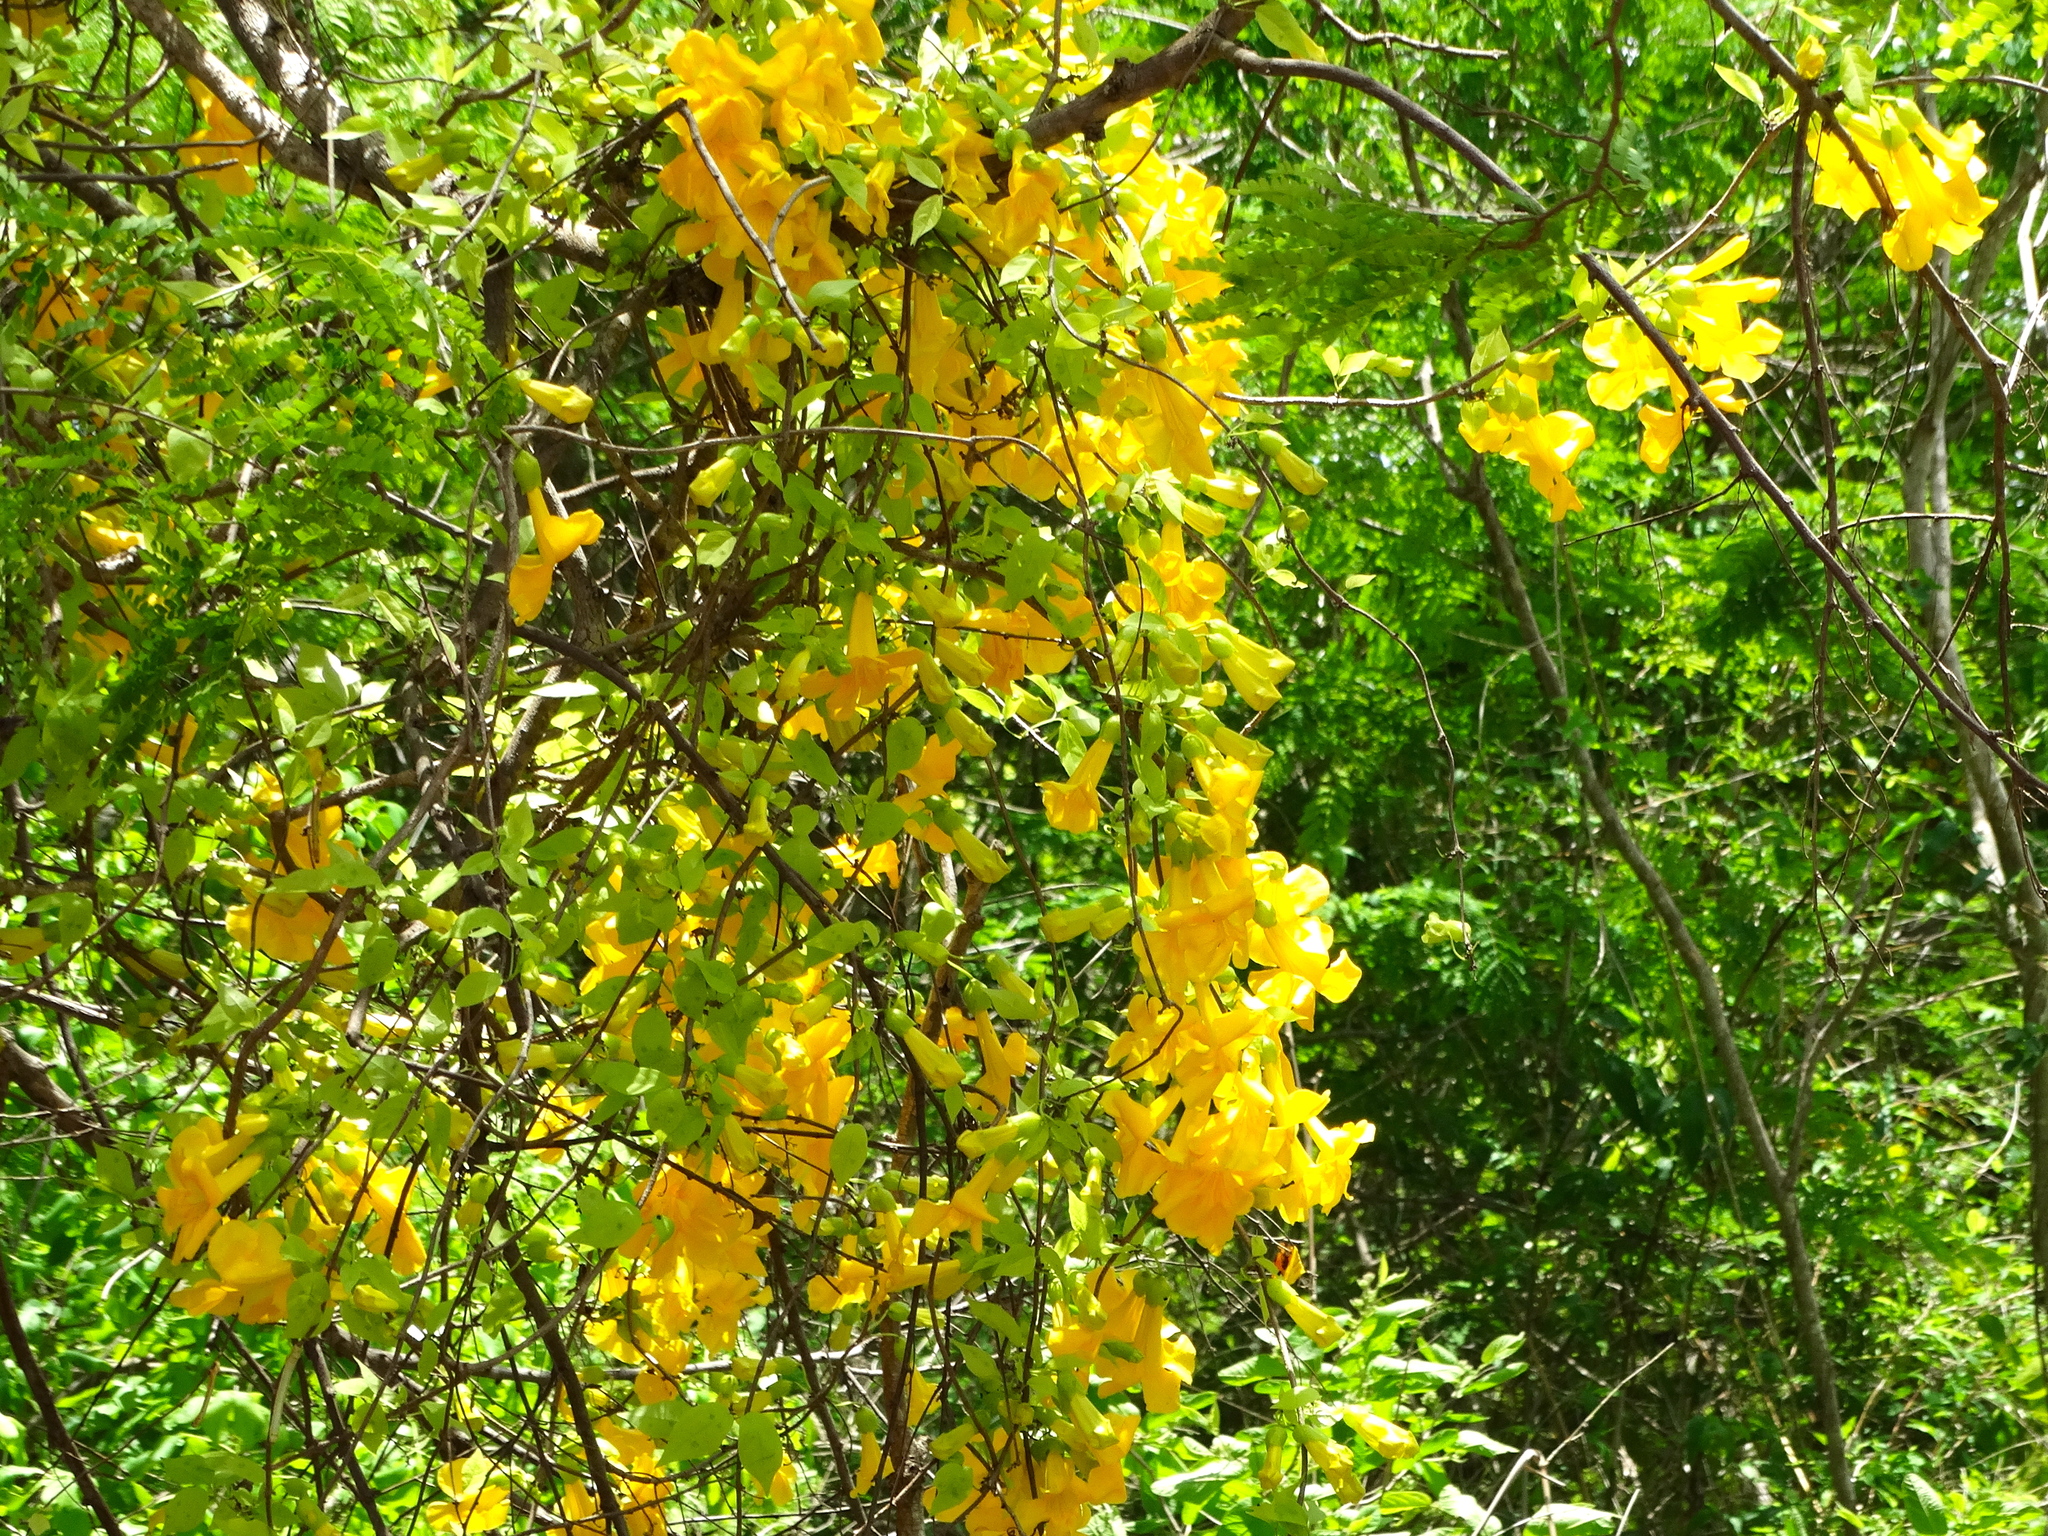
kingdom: Plantae
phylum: Tracheophyta
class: Magnoliopsida
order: Lamiales
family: Bignoniaceae
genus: Dolichandra
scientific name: Dolichandra unguis-cati
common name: Catclaw vine
